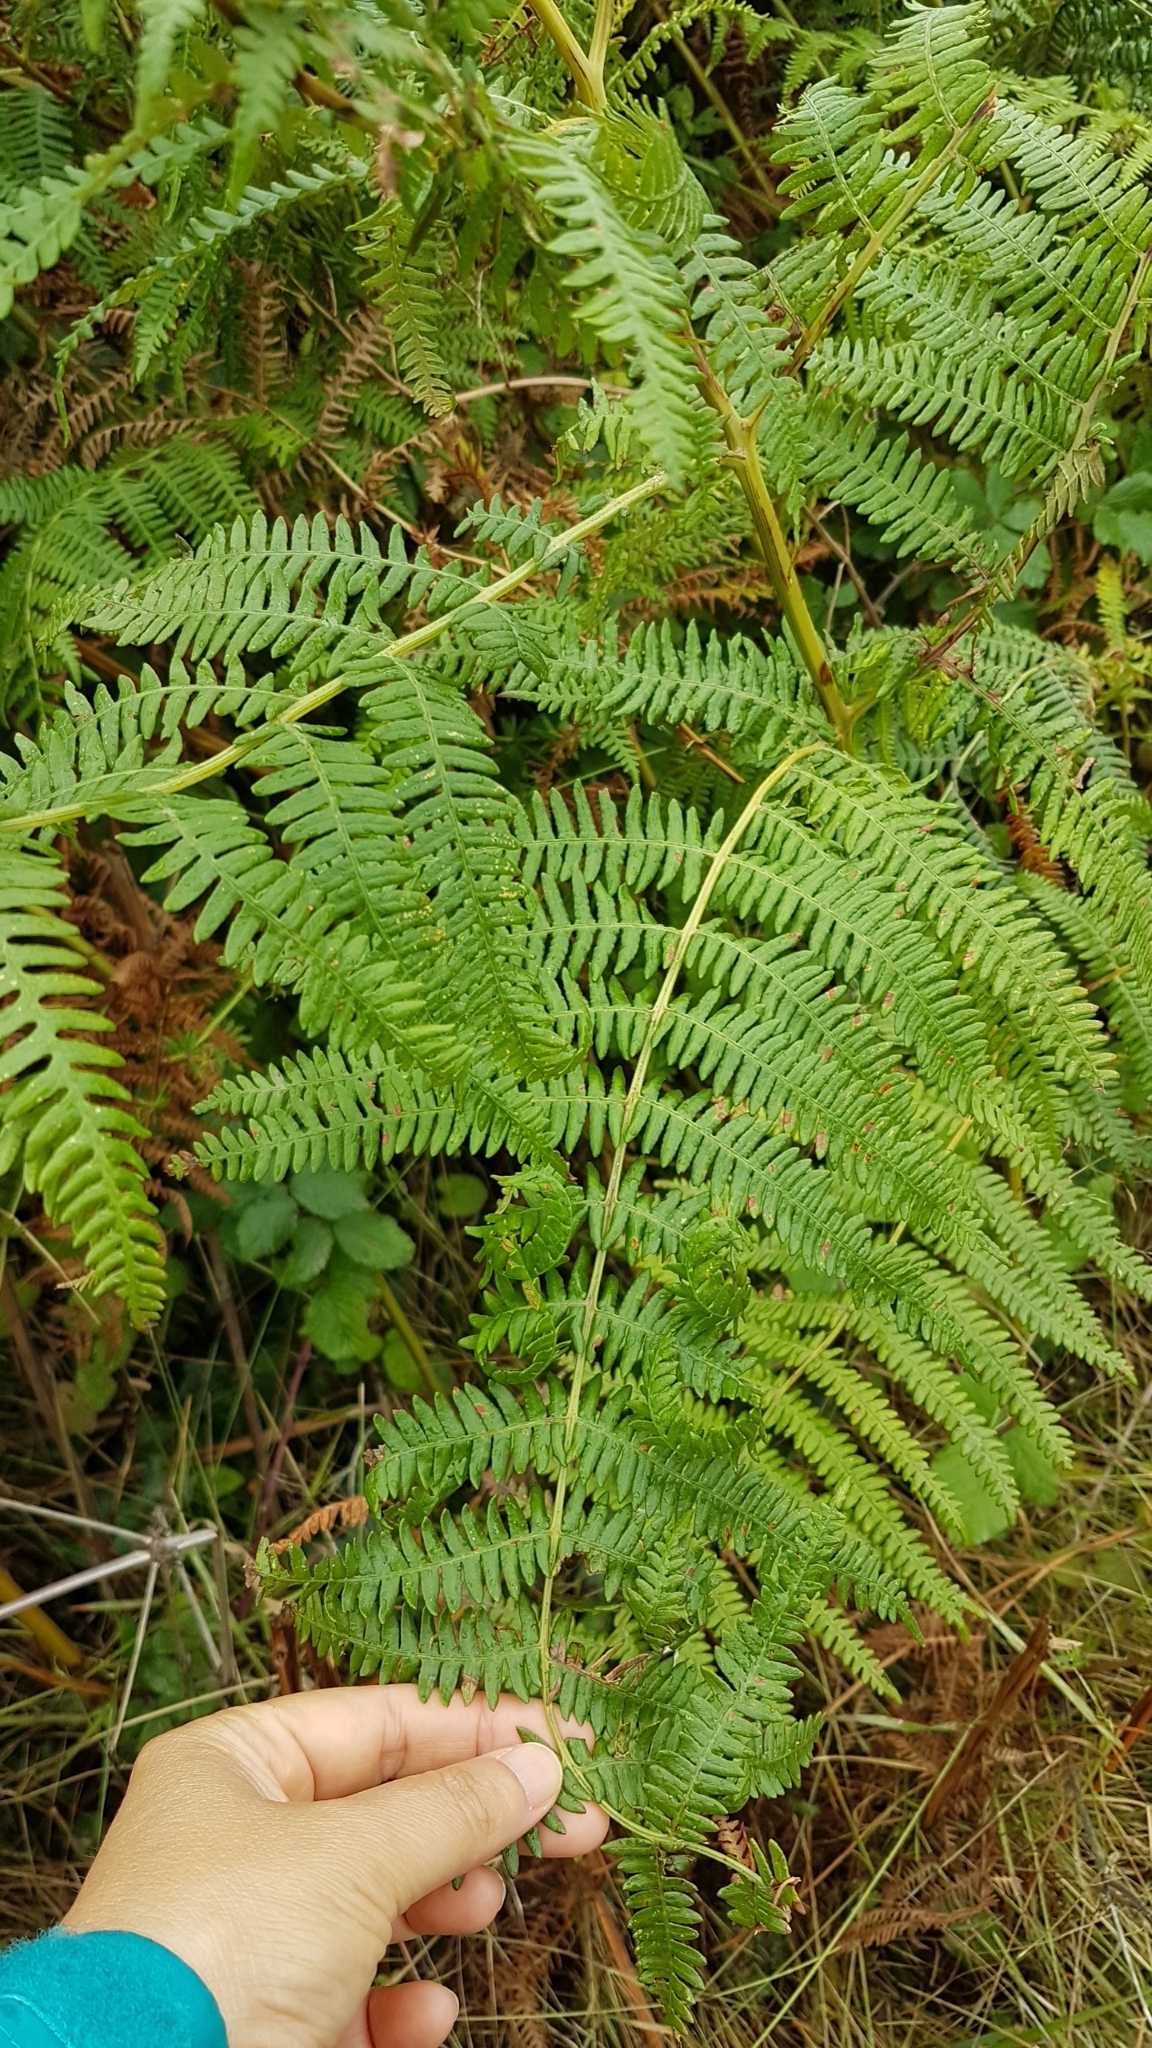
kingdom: Plantae
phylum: Tracheophyta
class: Polypodiopsida
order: Polypodiales
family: Dennstaedtiaceae
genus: Pteridium
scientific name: Pteridium aquilinum
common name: Bracken
